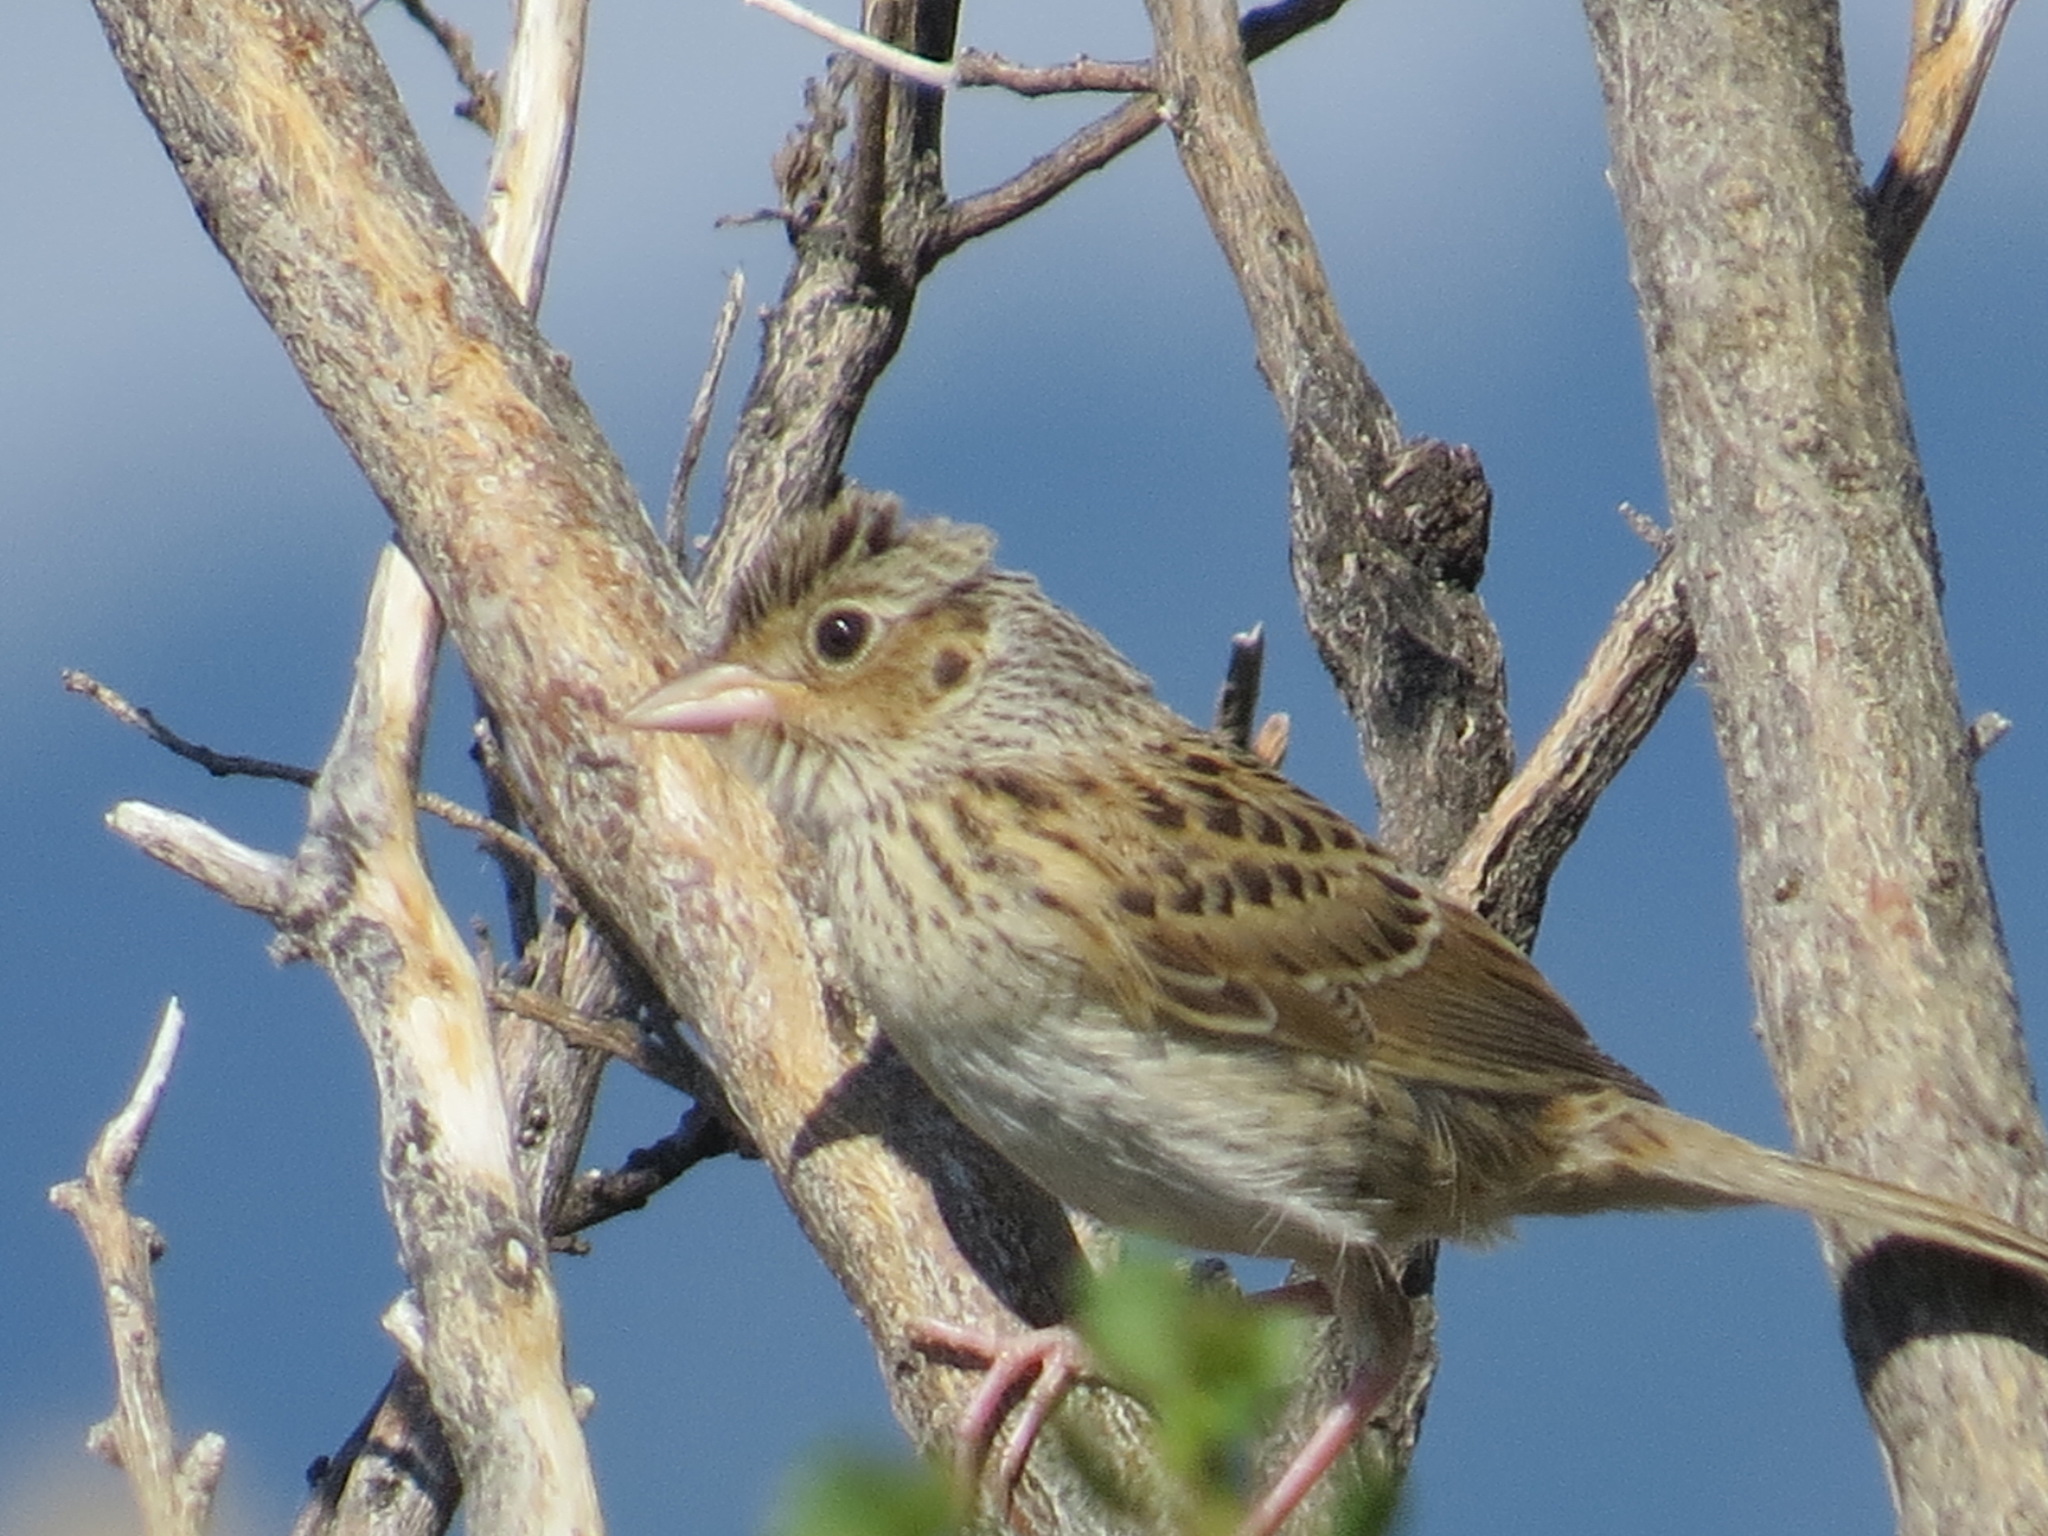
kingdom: Animalia
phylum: Chordata
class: Aves
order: Passeriformes
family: Passerellidae
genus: Ammodramus
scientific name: Ammodramus savannarum
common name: Grasshopper sparrow
